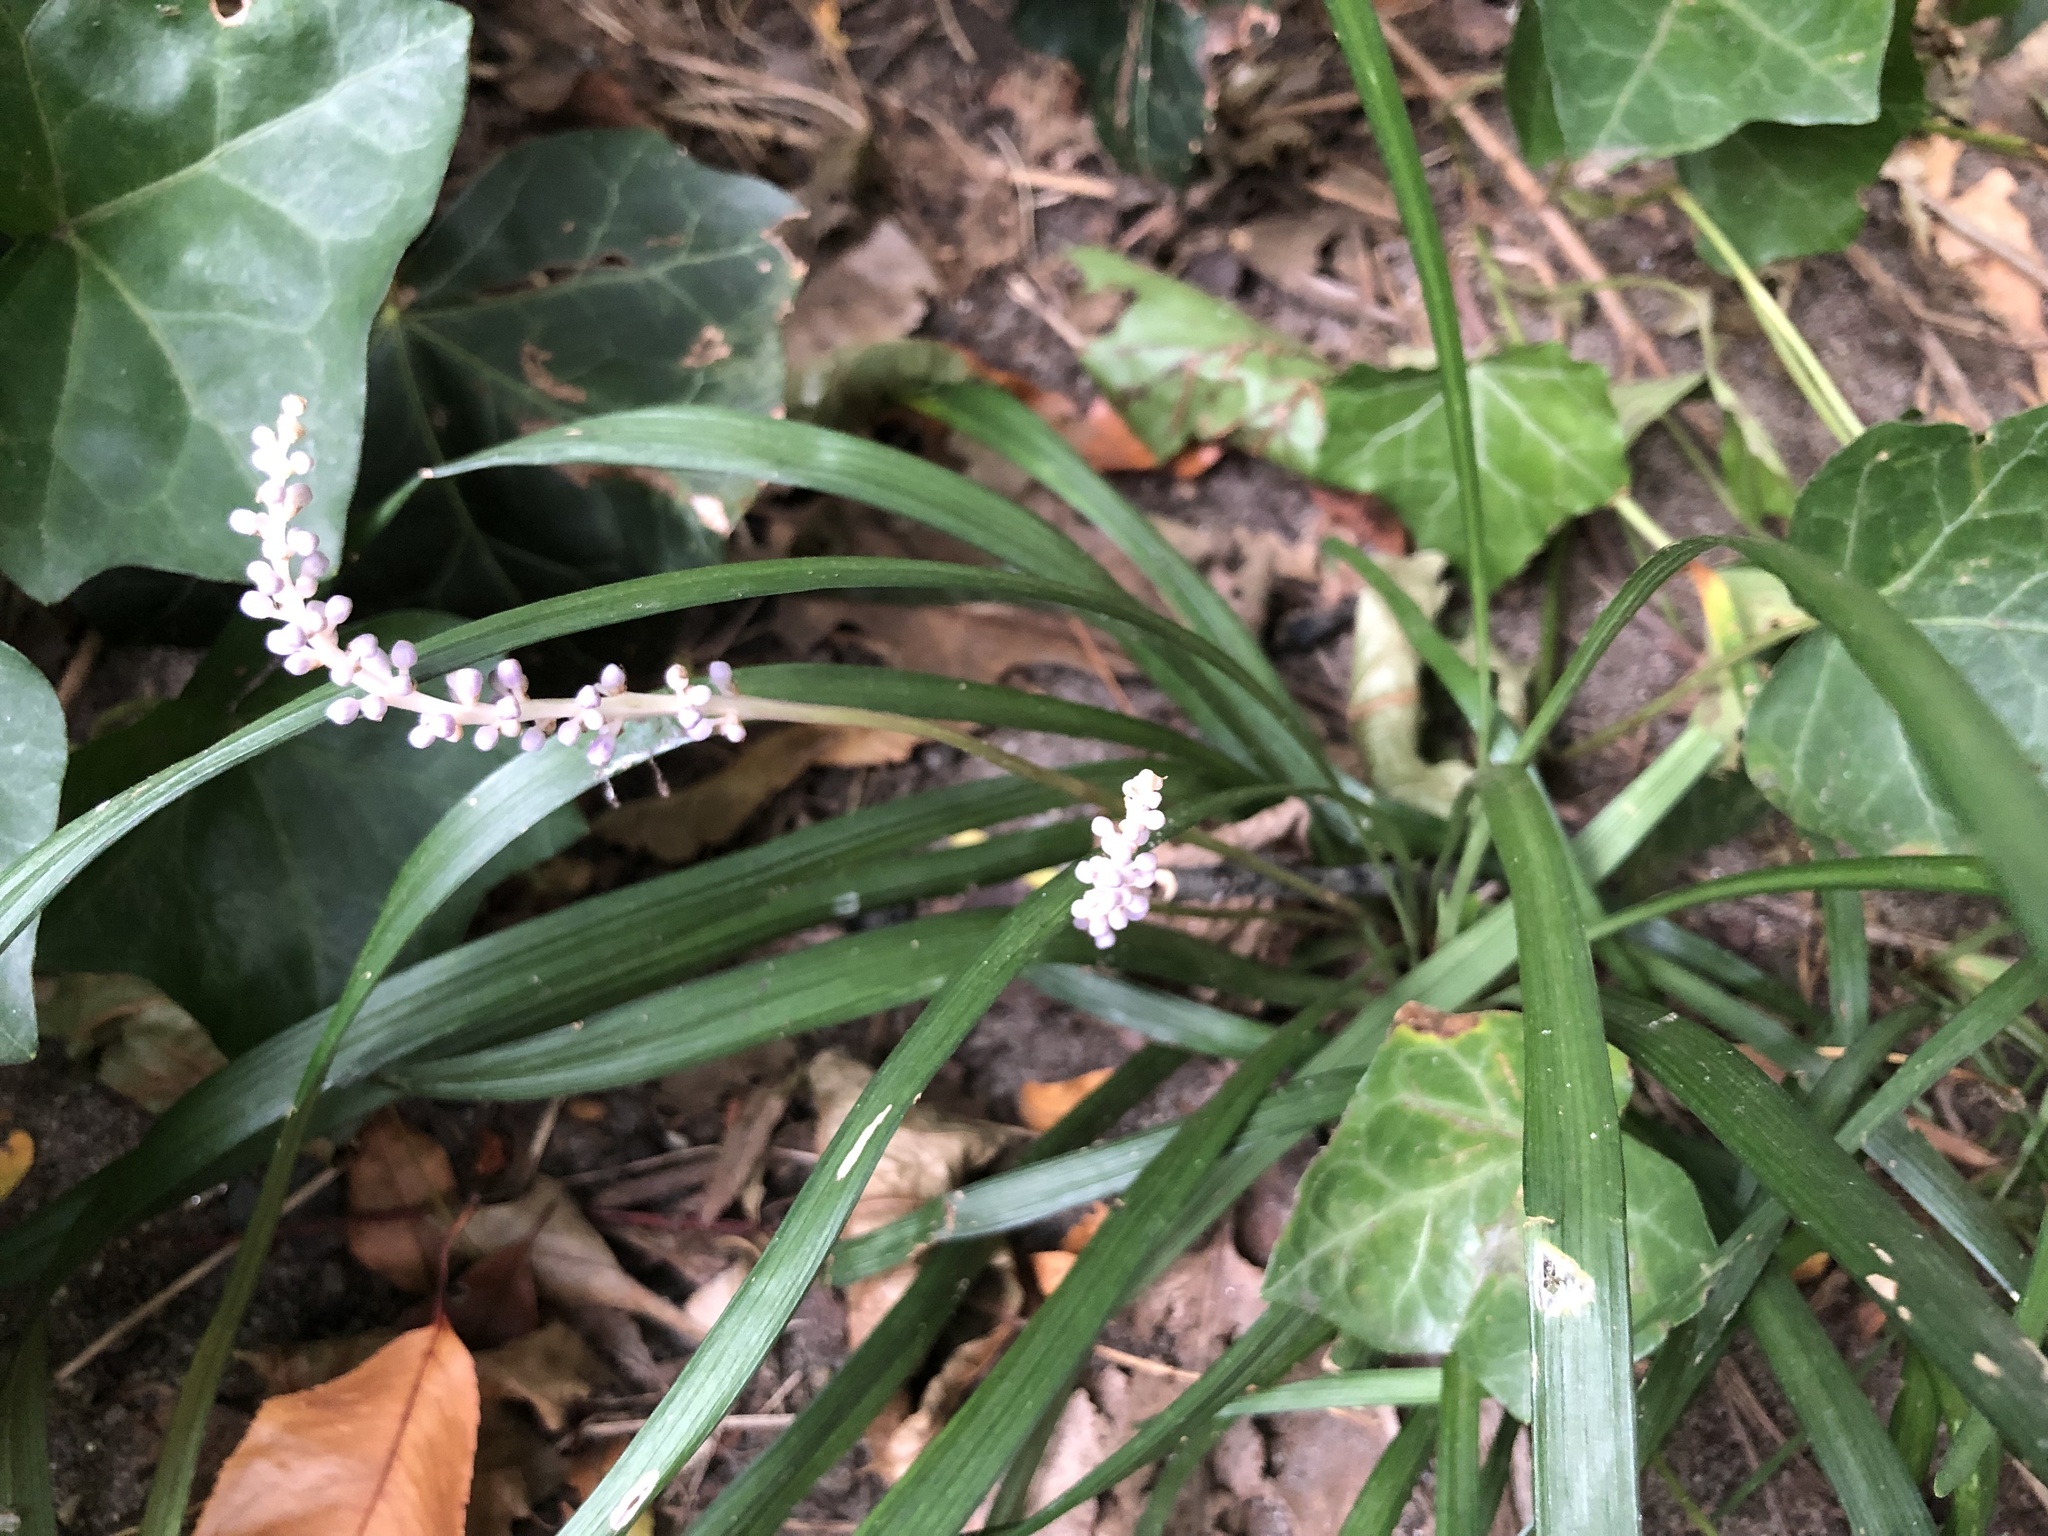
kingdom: Plantae
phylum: Tracheophyta
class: Liliopsida
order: Asparagales
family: Asparagaceae
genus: Liriope
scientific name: Liriope muscari
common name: Big blue lilyturf
